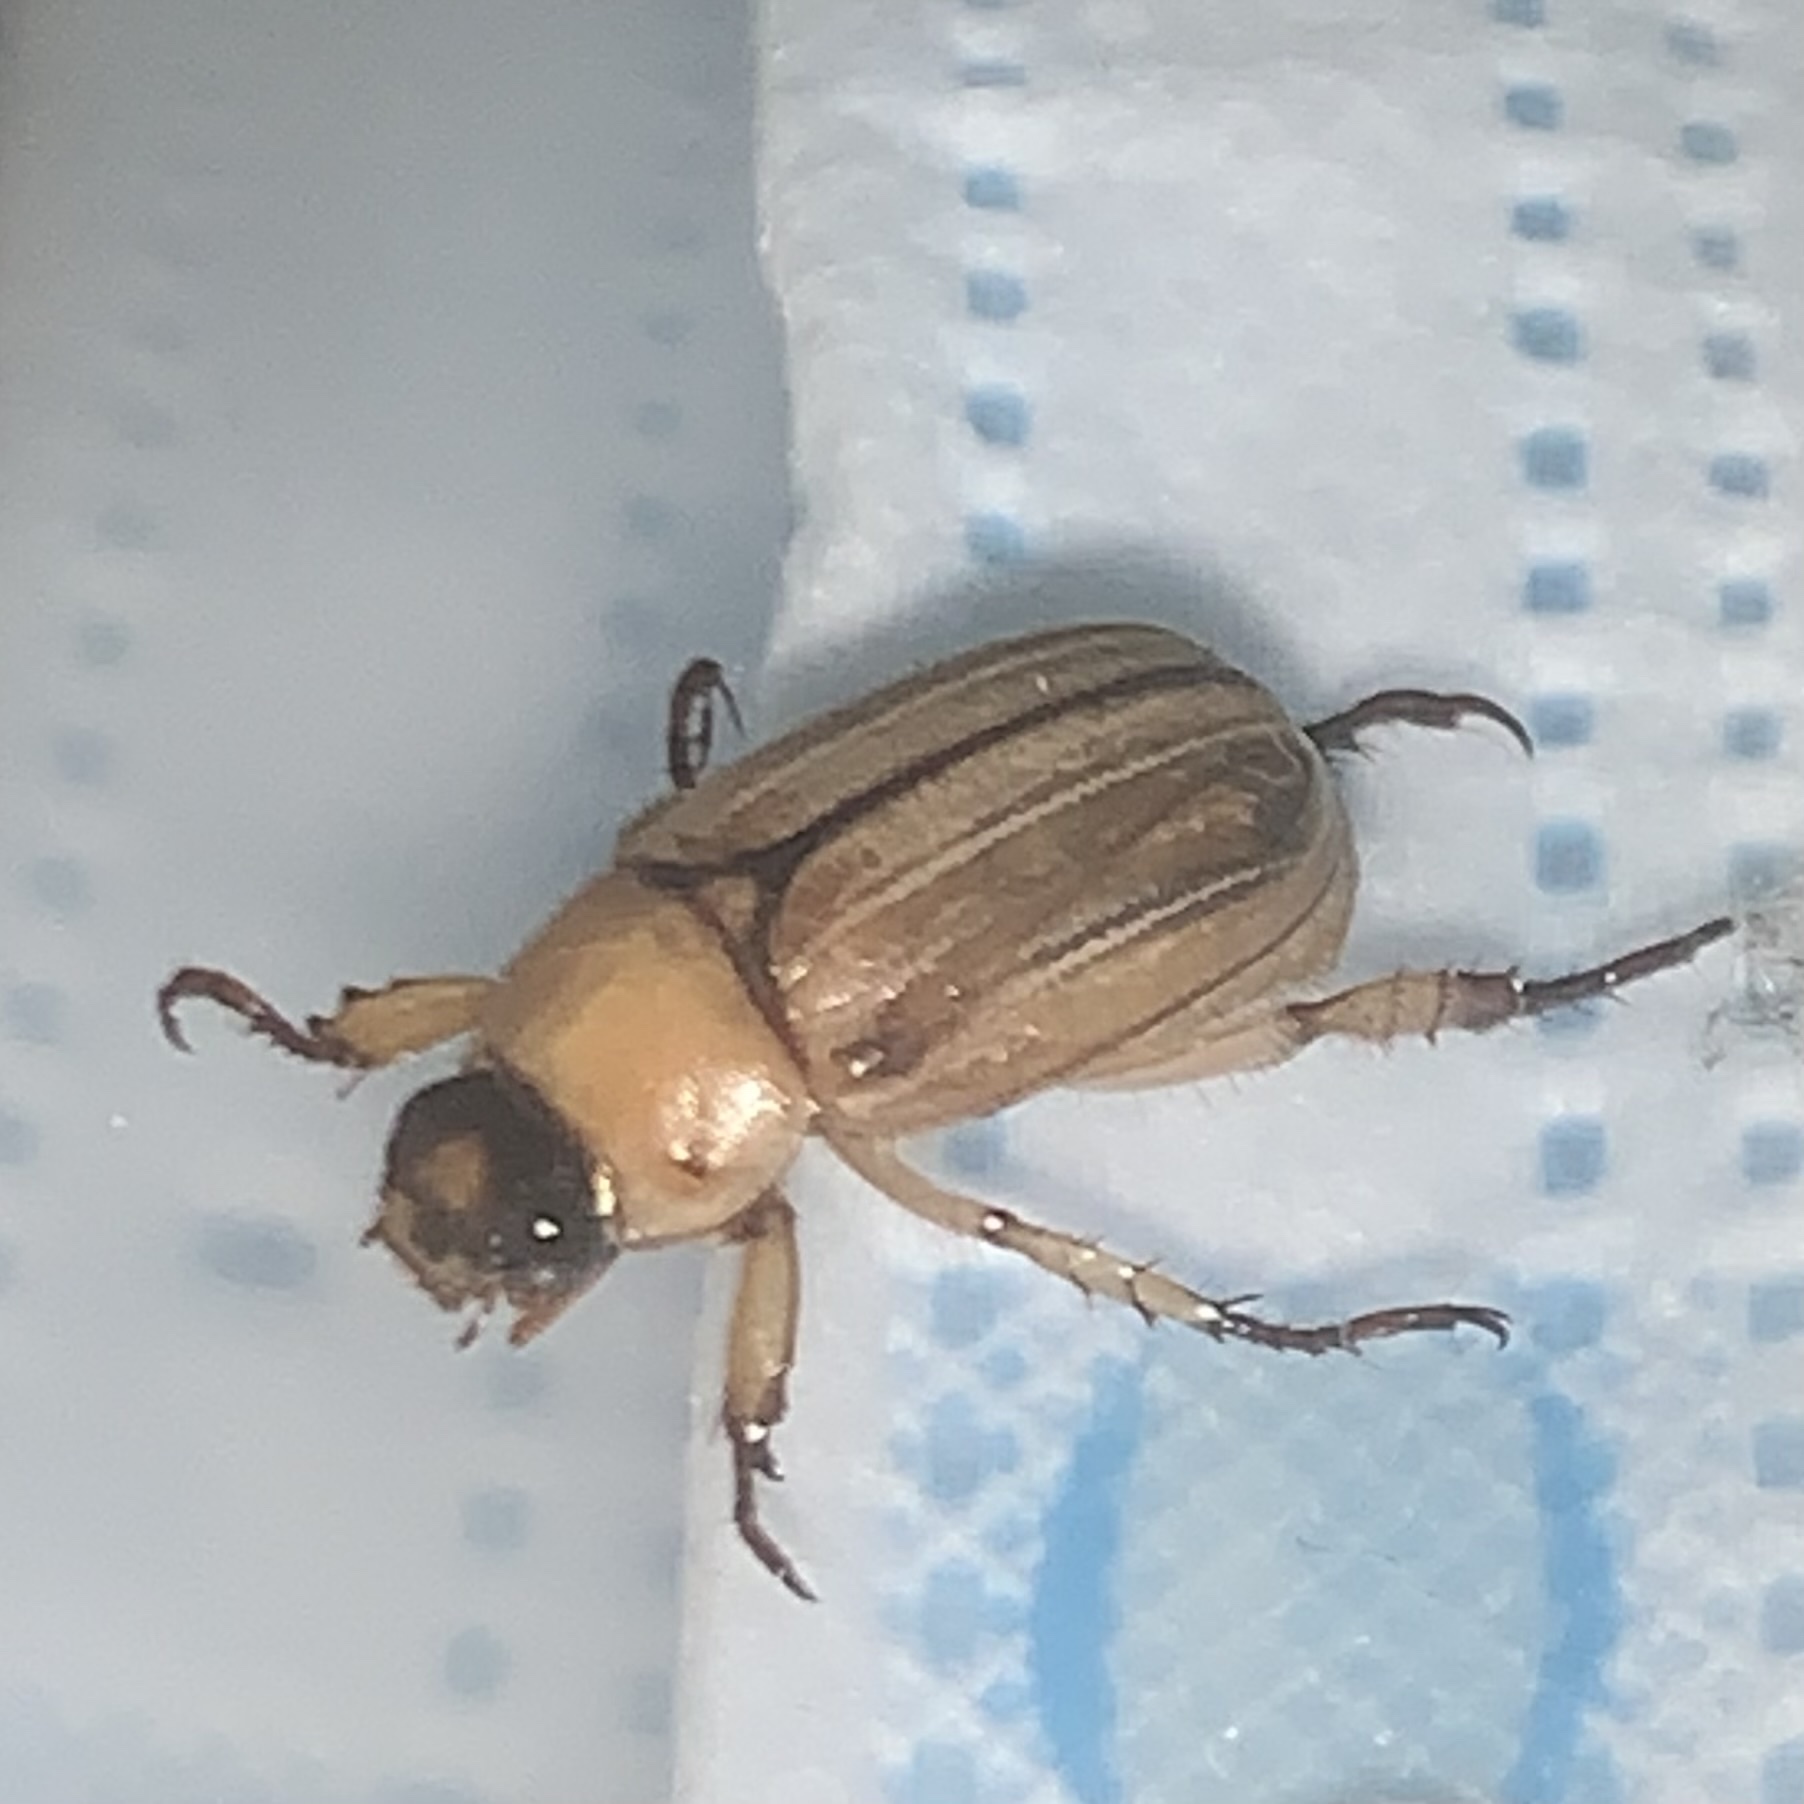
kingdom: Animalia
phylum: Arthropoda
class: Insecta
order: Coleoptera
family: Scarabaeidae
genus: Anomala
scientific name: Anomala pallida
